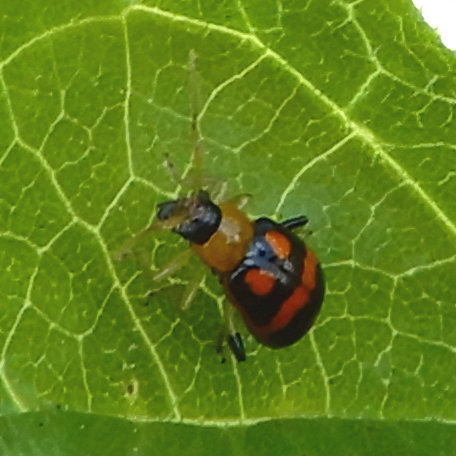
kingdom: Animalia
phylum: Arthropoda
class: Insecta
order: Coleoptera
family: Chrysomelidae
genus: Cerotoma
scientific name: Cerotoma ruficornis
